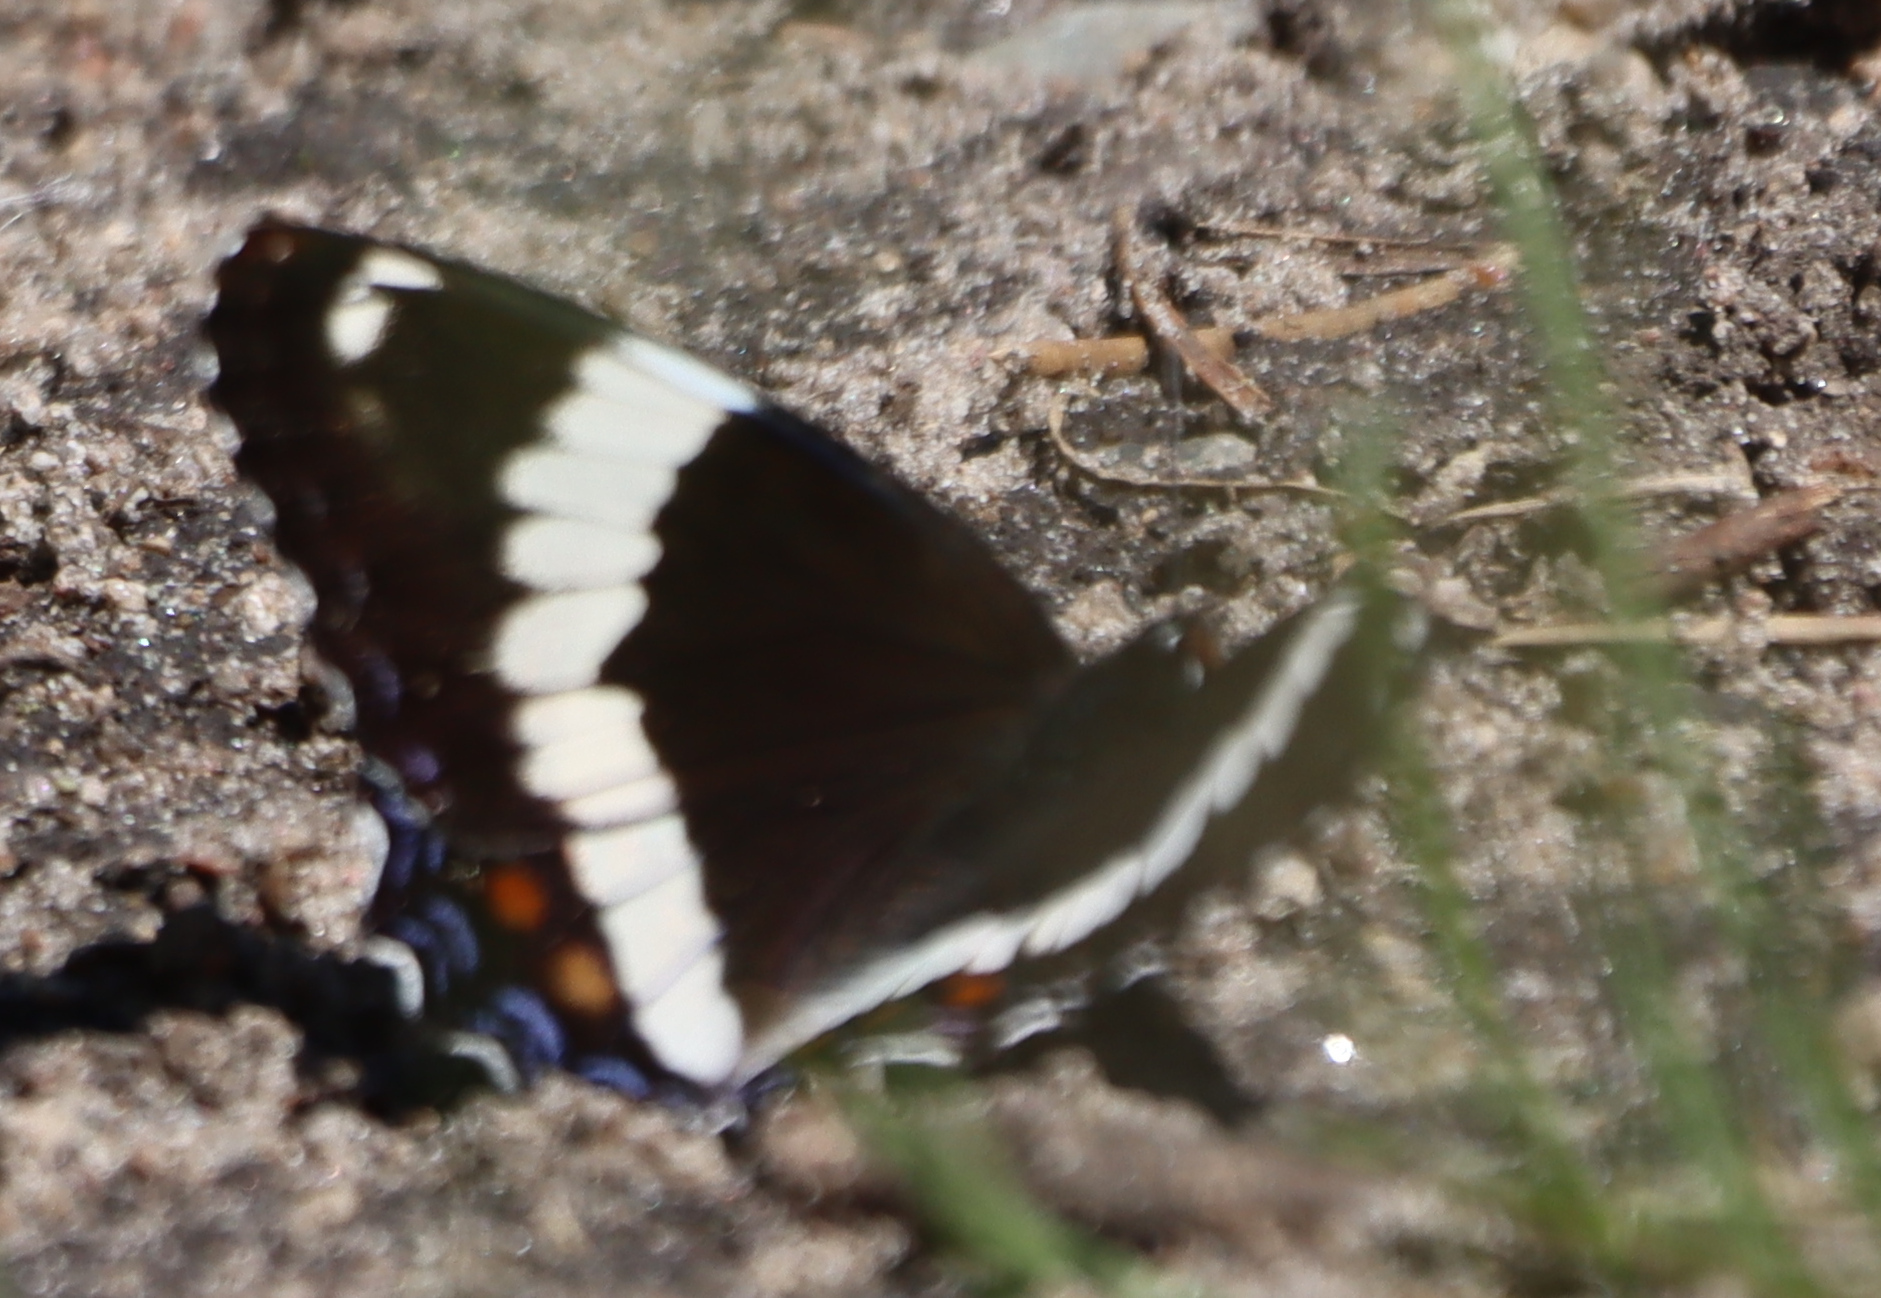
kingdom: Animalia
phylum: Arthropoda
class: Insecta
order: Lepidoptera
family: Nymphalidae
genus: Limenitis
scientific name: Limenitis arthemis
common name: Red-spotted admiral
